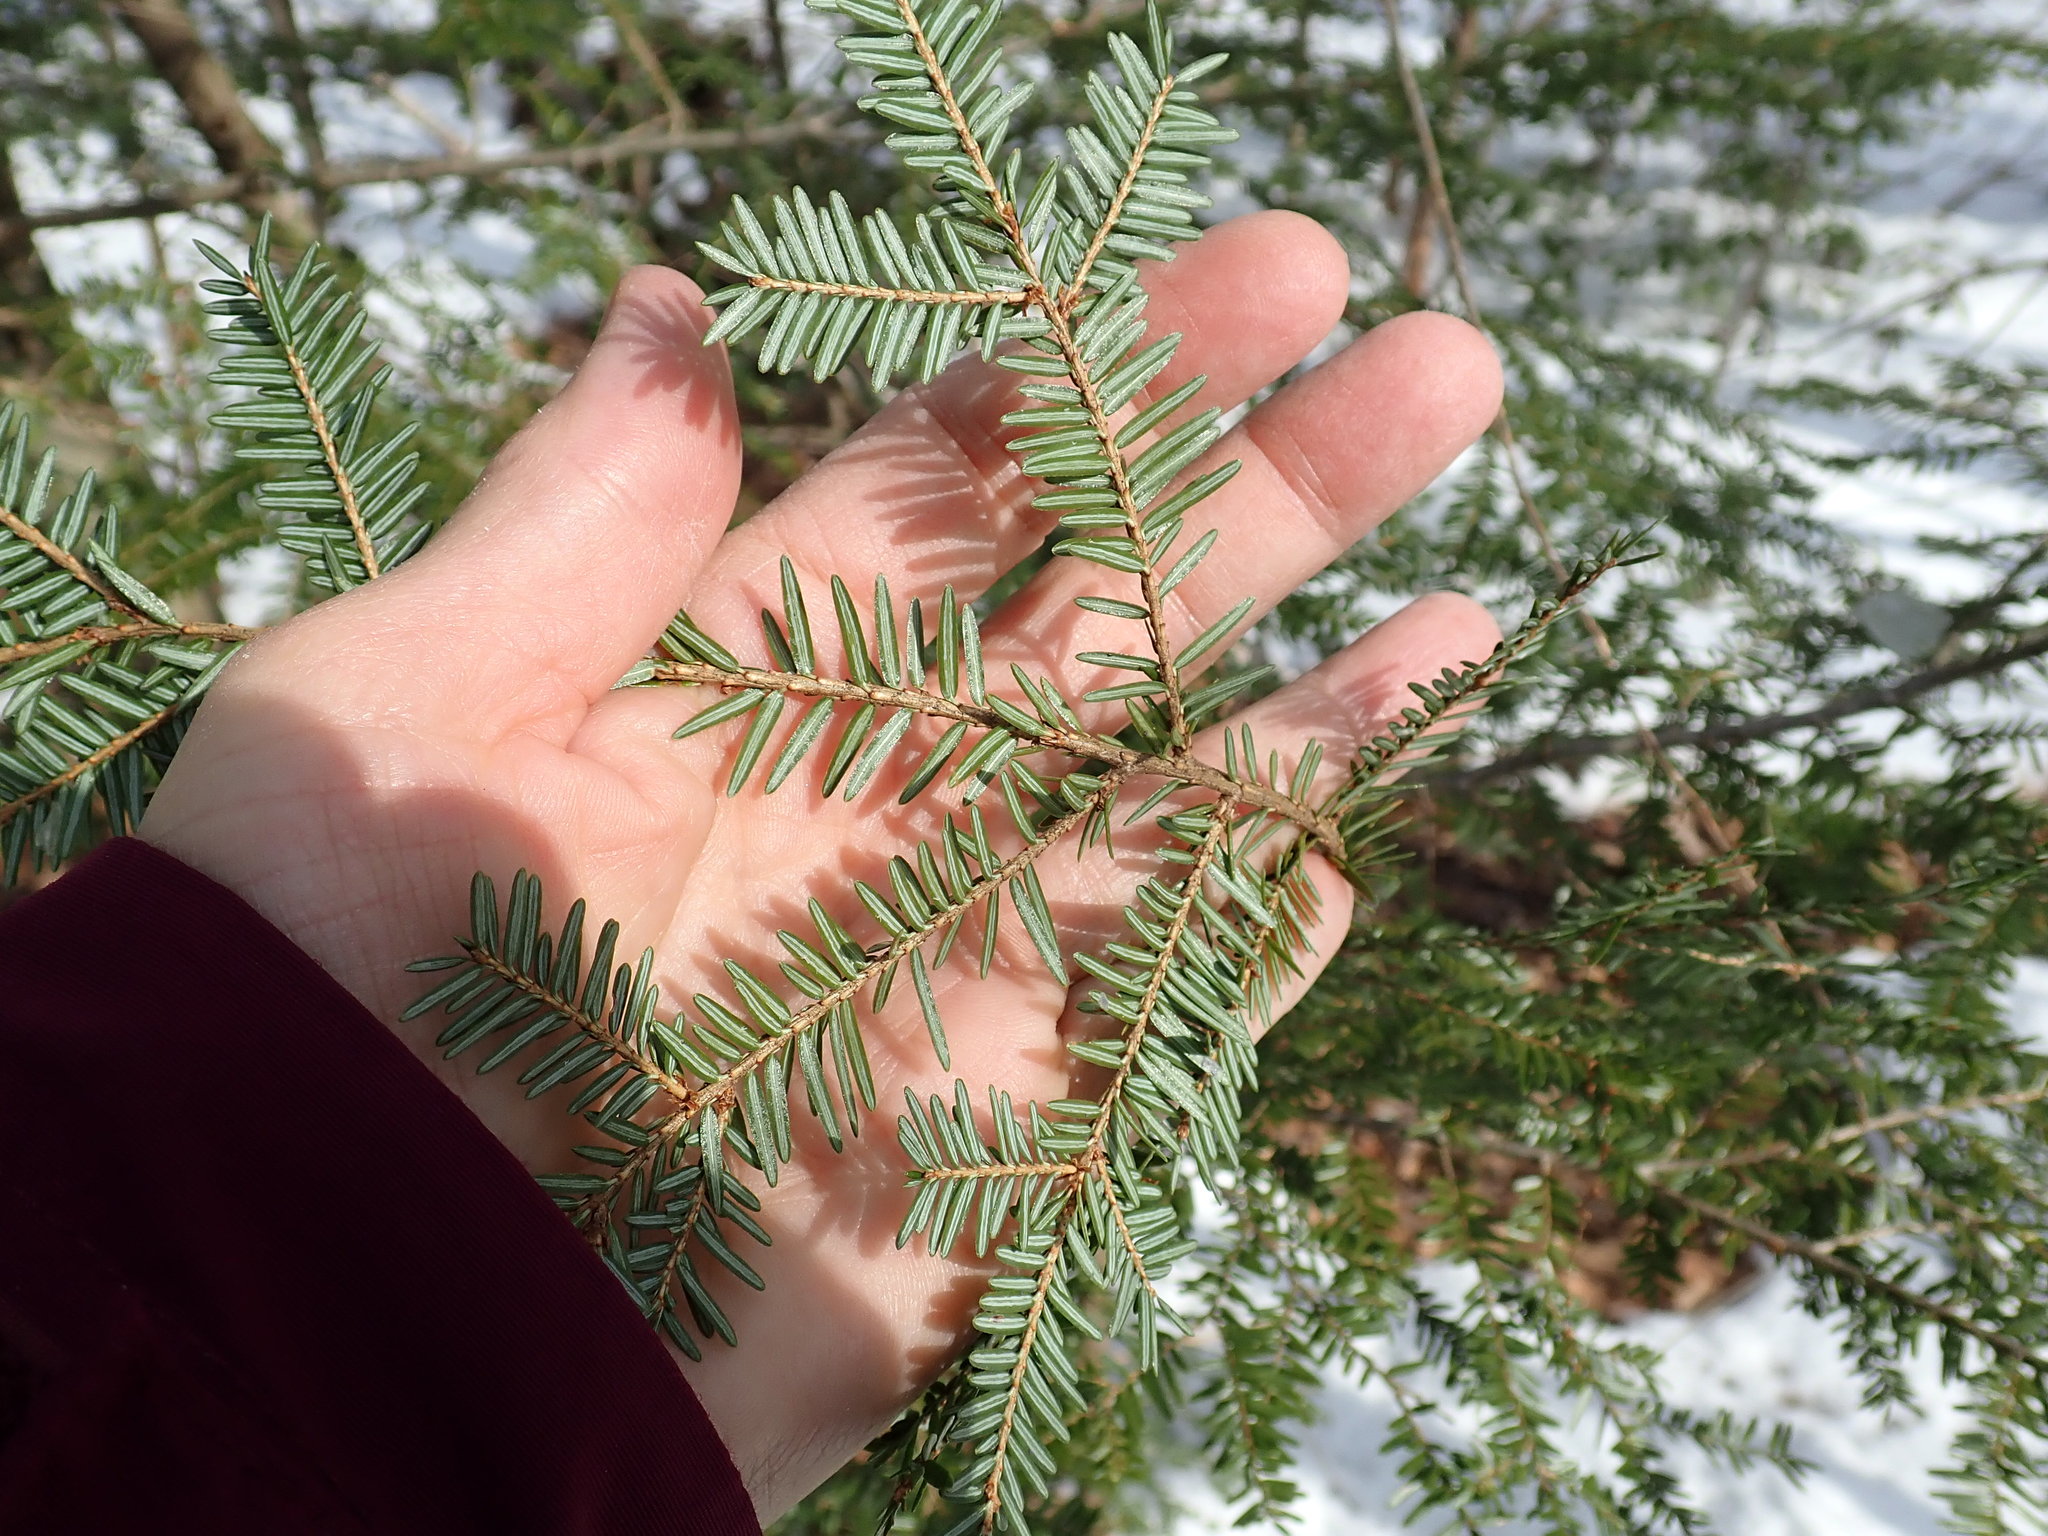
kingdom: Plantae
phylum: Tracheophyta
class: Pinopsida
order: Pinales
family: Pinaceae
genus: Tsuga
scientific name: Tsuga canadensis
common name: Eastern hemlock
